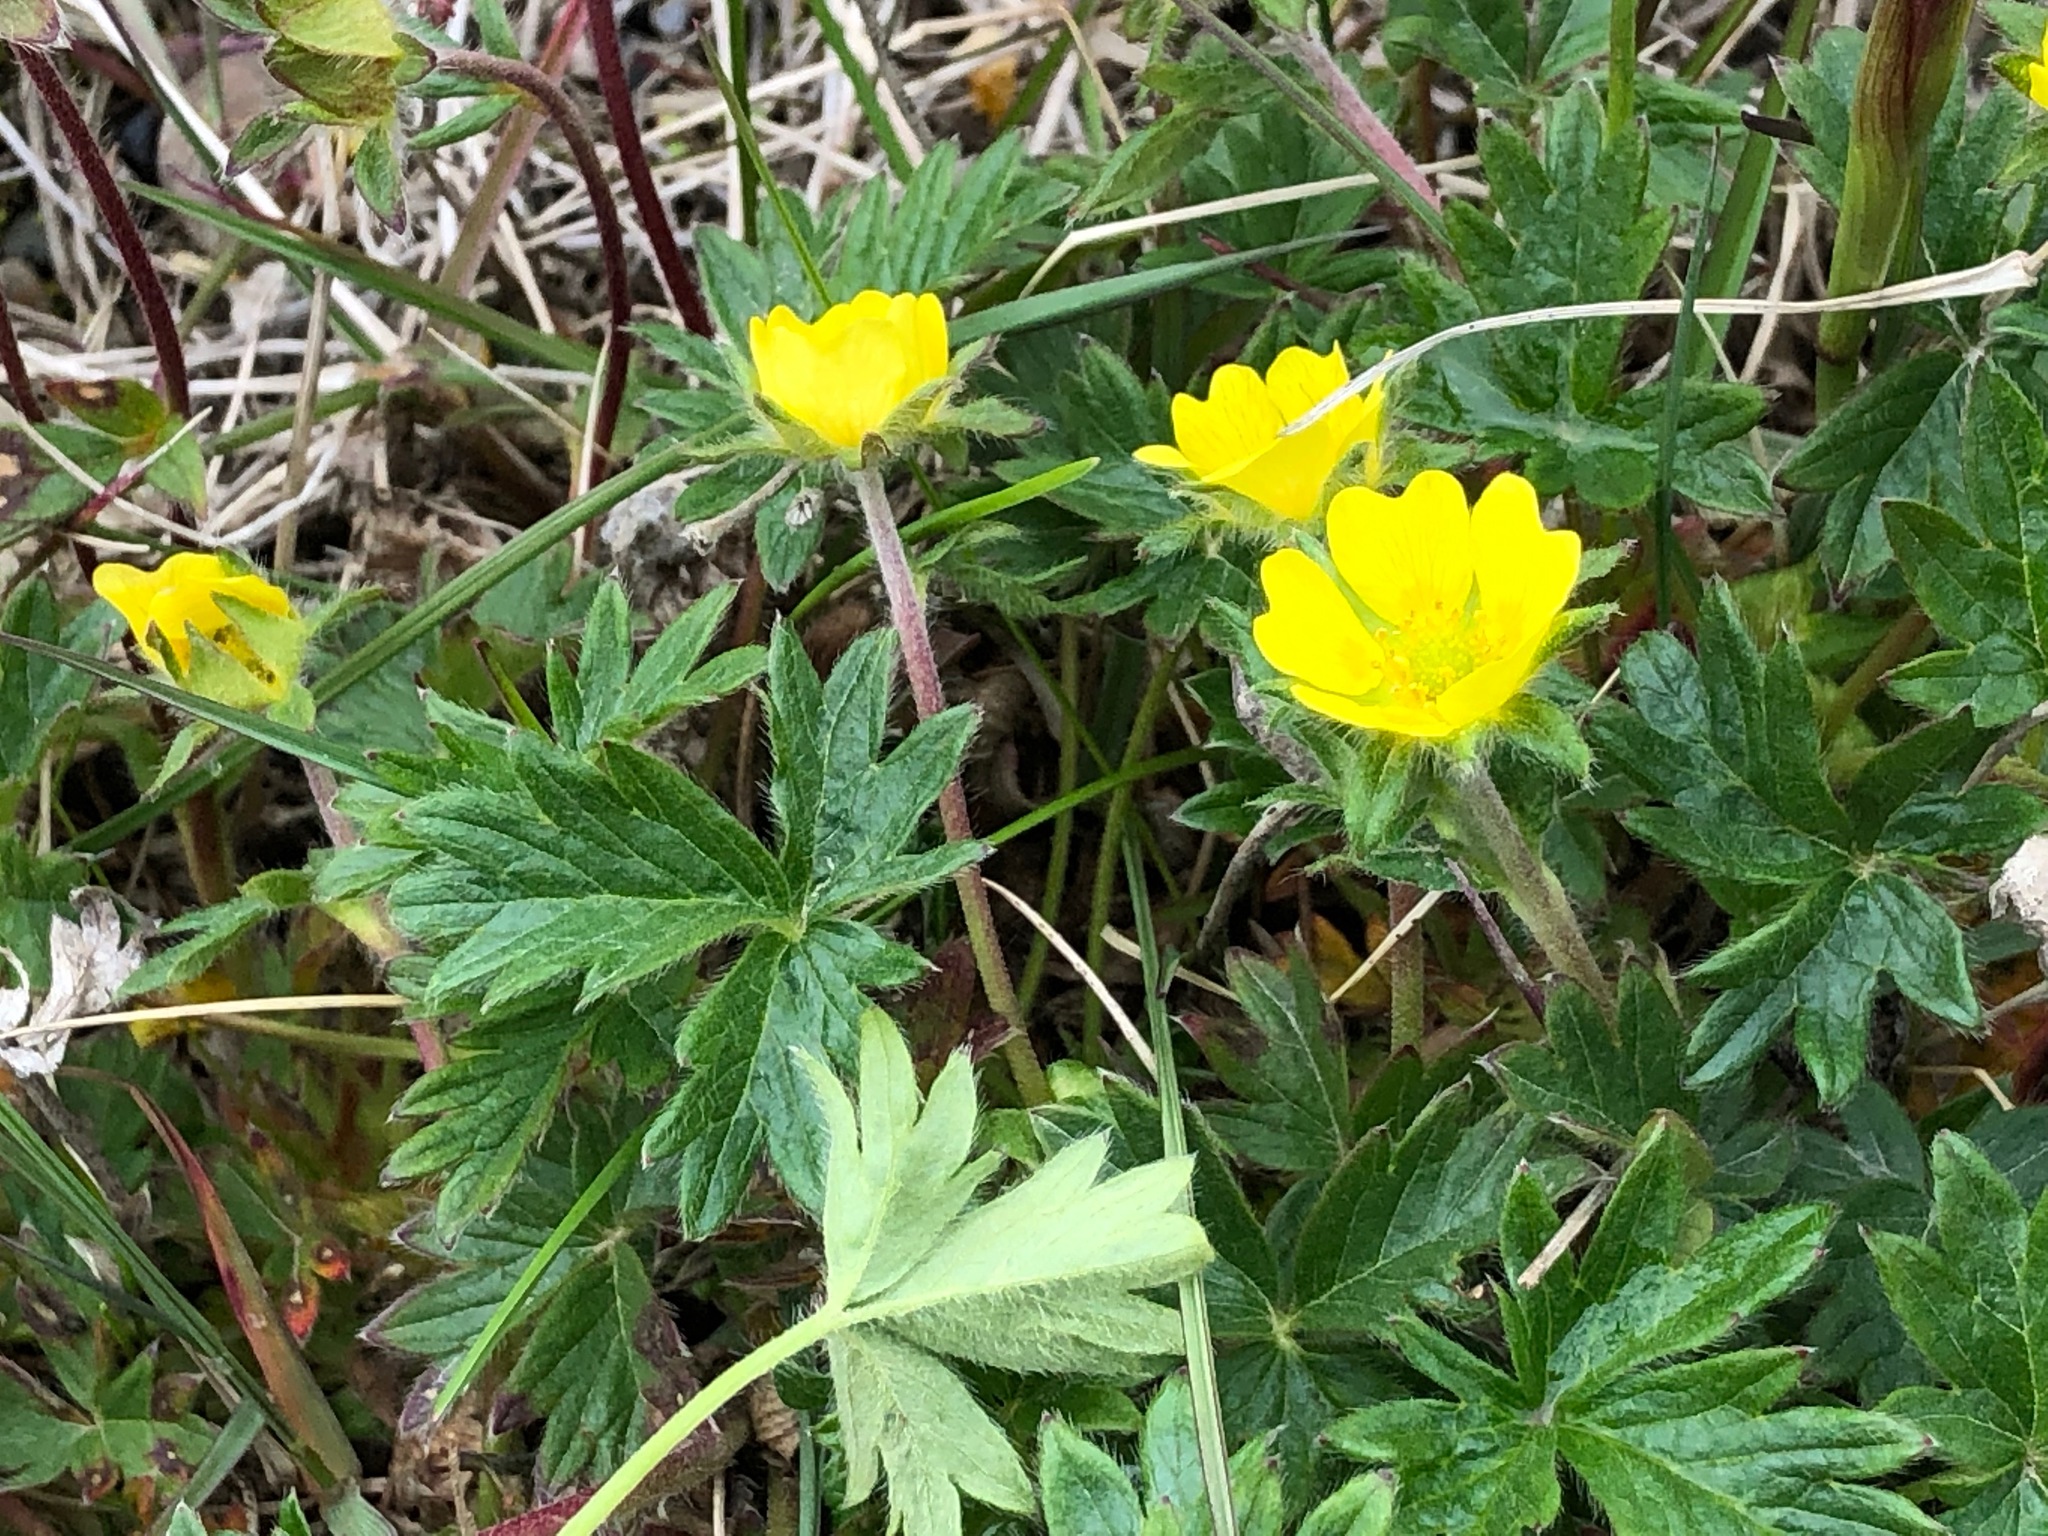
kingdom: Plantae
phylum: Tracheophyta
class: Magnoliopsida
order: Rosales
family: Rosaceae
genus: Potentilla
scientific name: Potentilla hyparctica
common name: Arctic cinquefoil
